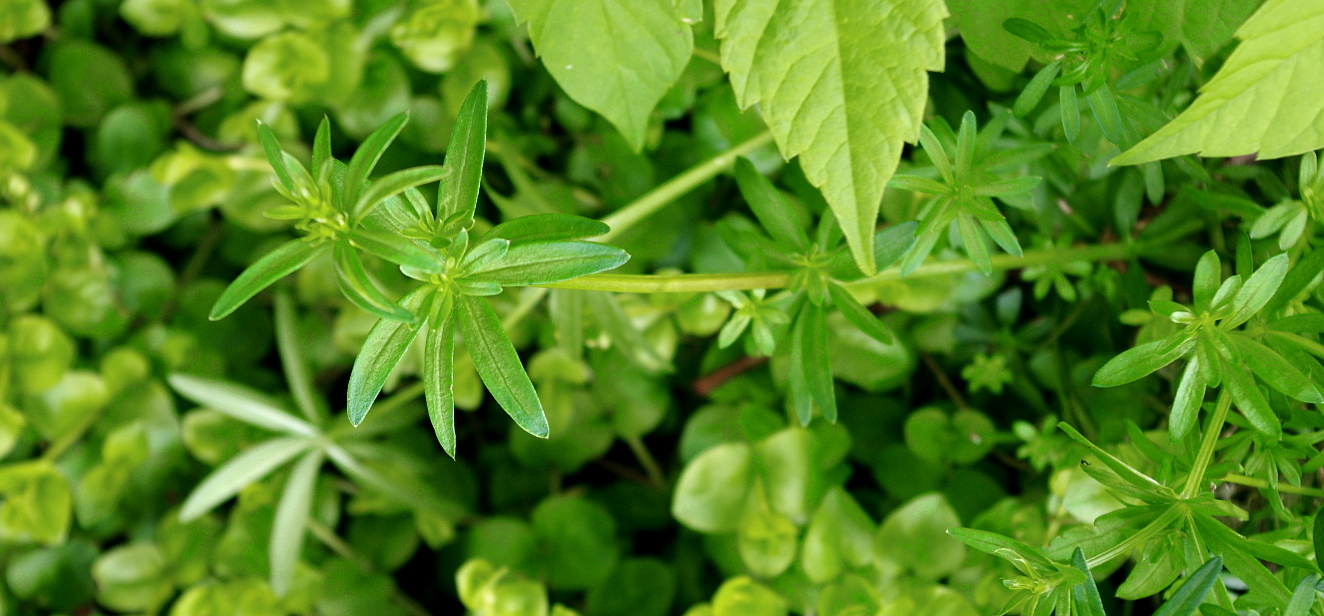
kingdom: Plantae
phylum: Tracheophyta
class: Magnoliopsida
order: Gentianales
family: Rubiaceae
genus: Galium
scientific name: Galium mollugo
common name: Hedge bedstraw
